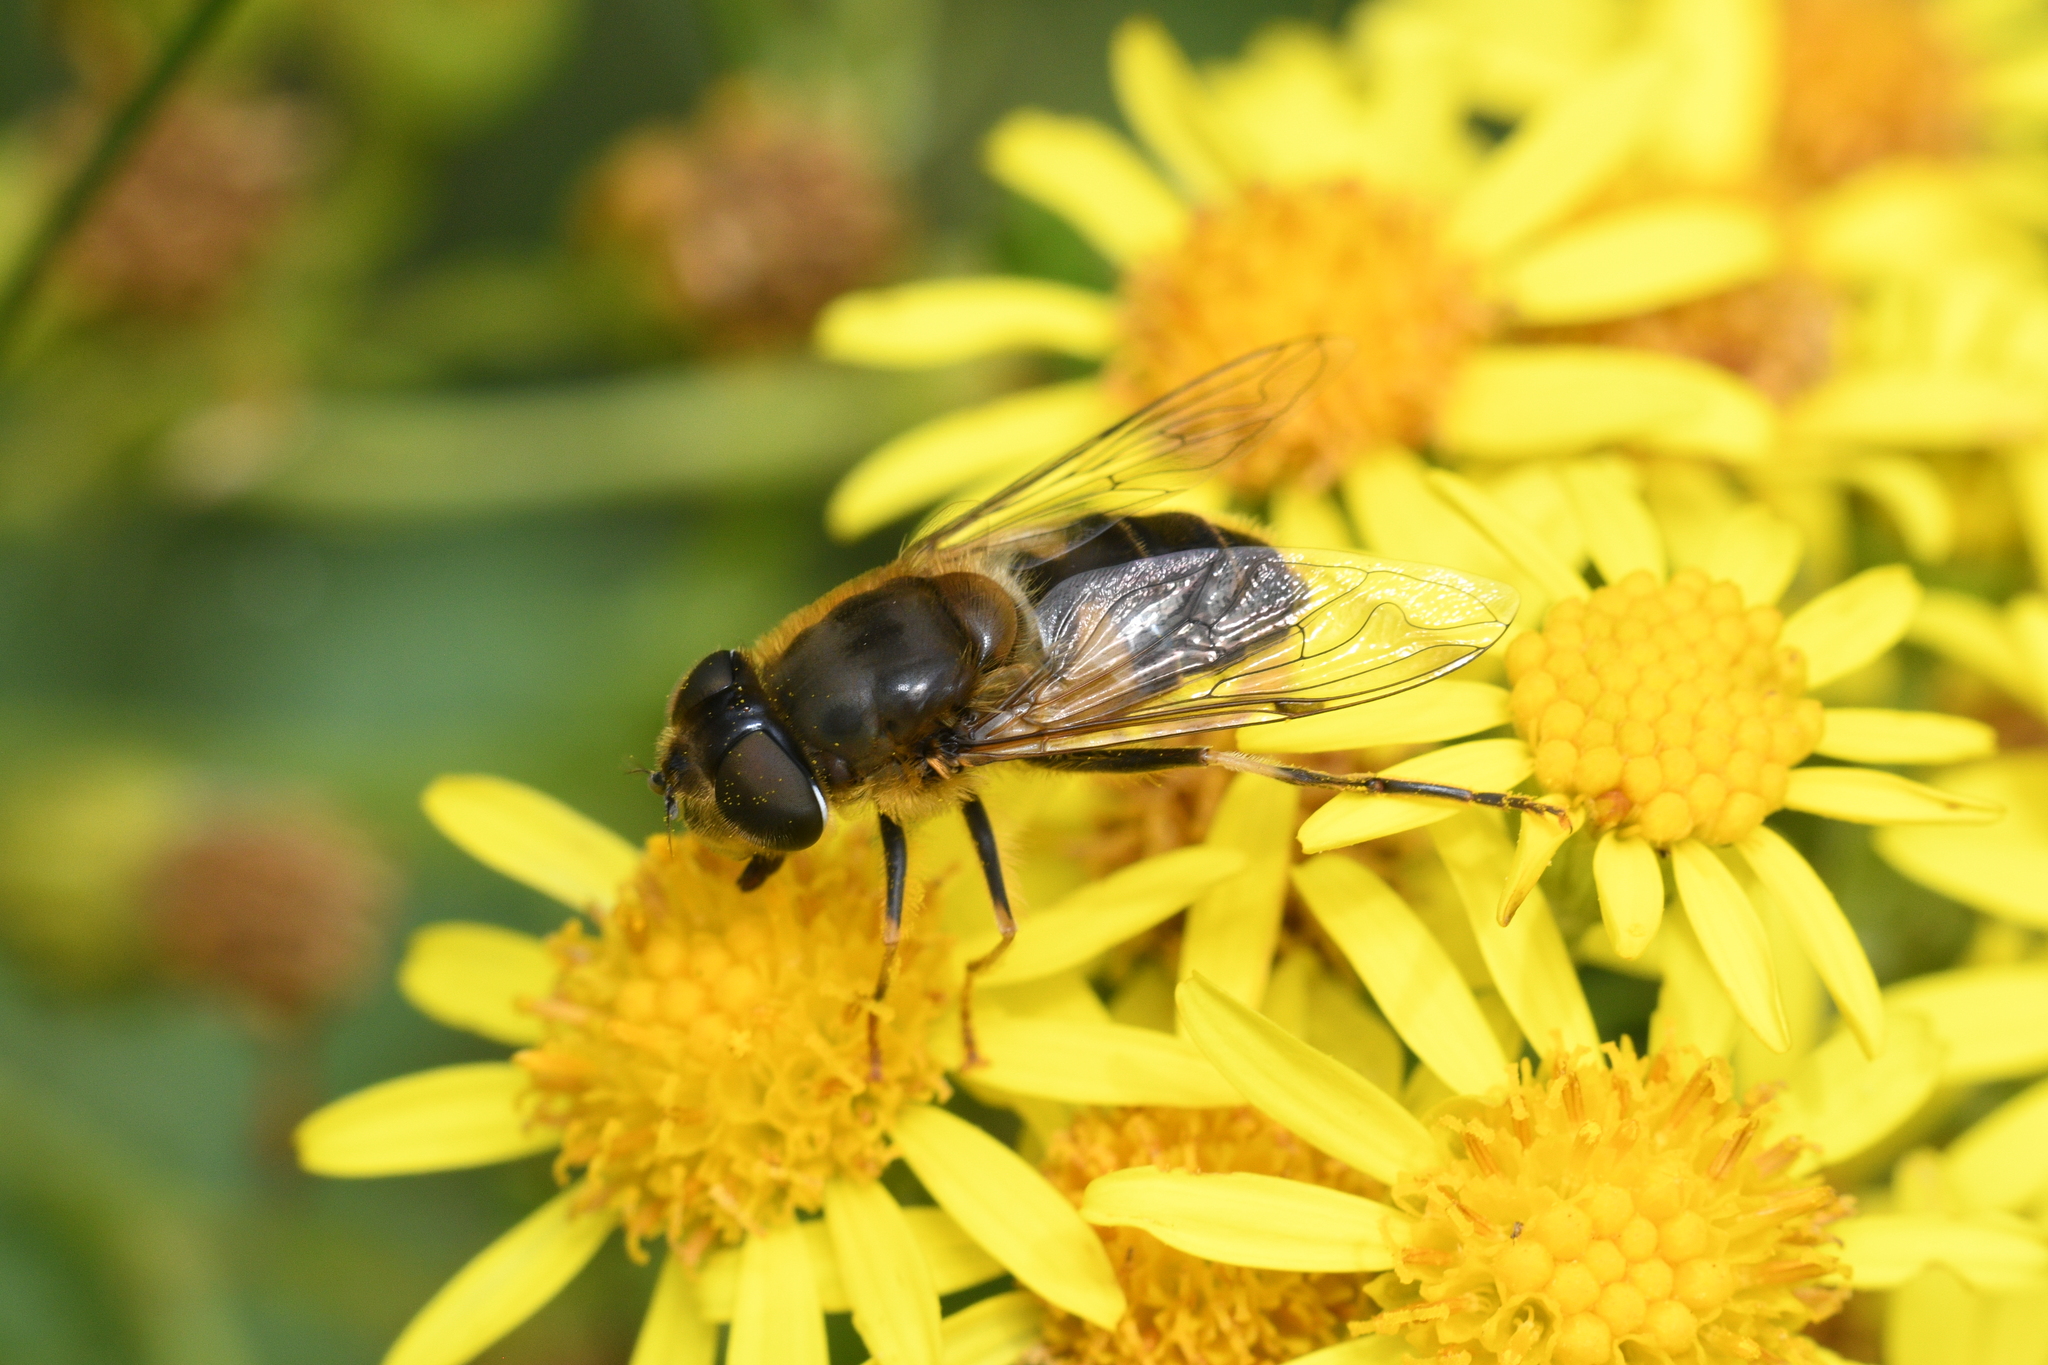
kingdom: Animalia
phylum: Arthropoda
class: Insecta
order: Diptera
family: Syrphidae
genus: Eristalis
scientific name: Eristalis pertinax
